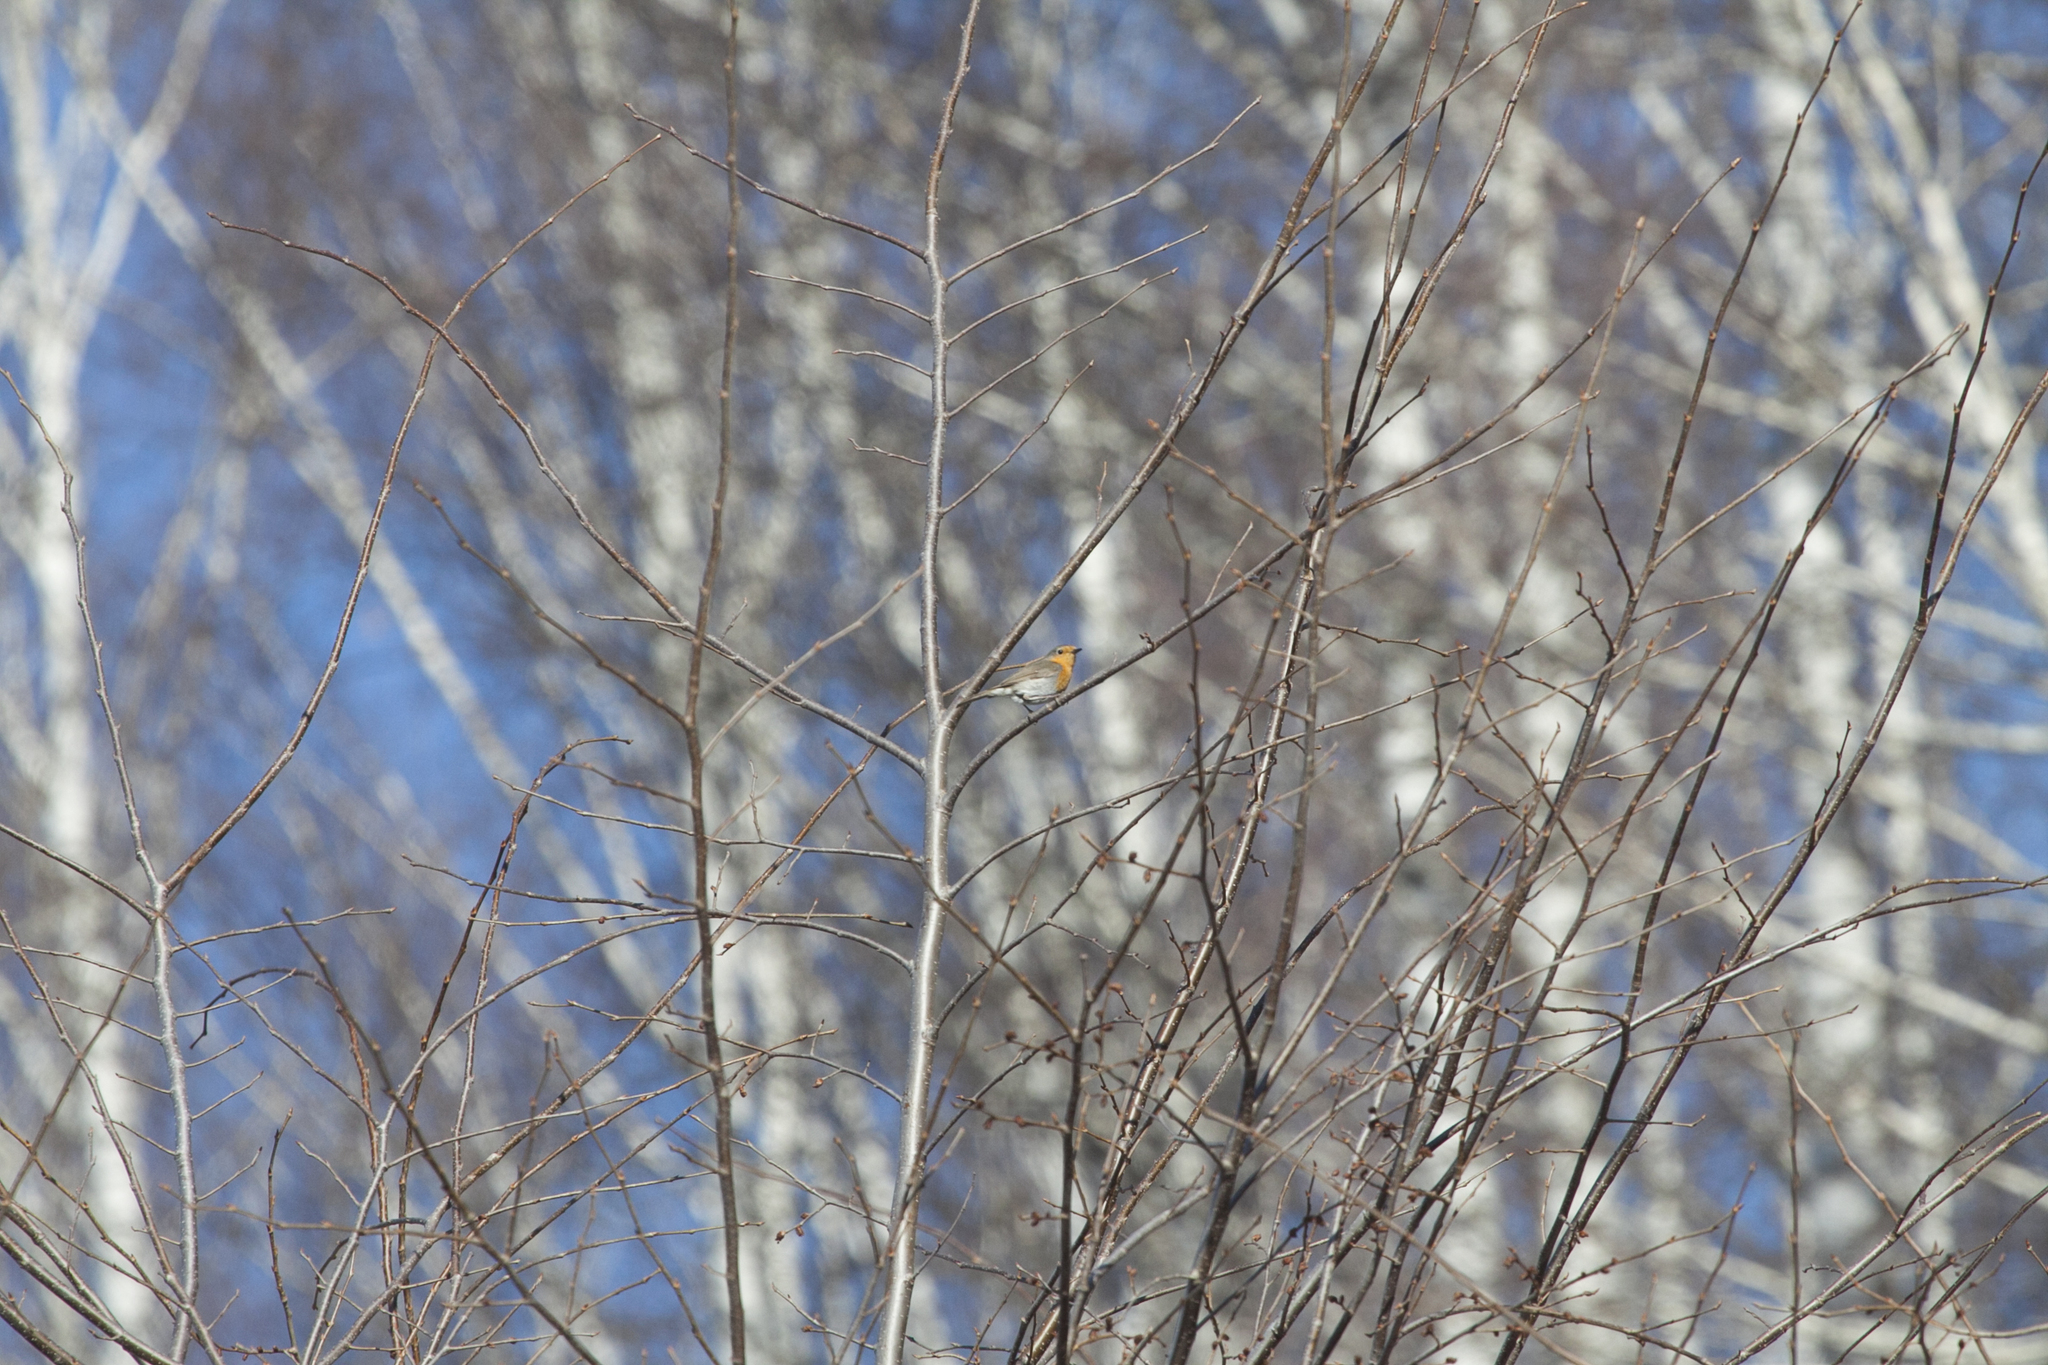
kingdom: Animalia
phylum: Chordata
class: Aves
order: Passeriformes
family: Muscicapidae
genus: Erithacus
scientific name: Erithacus rubecula
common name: European robin
